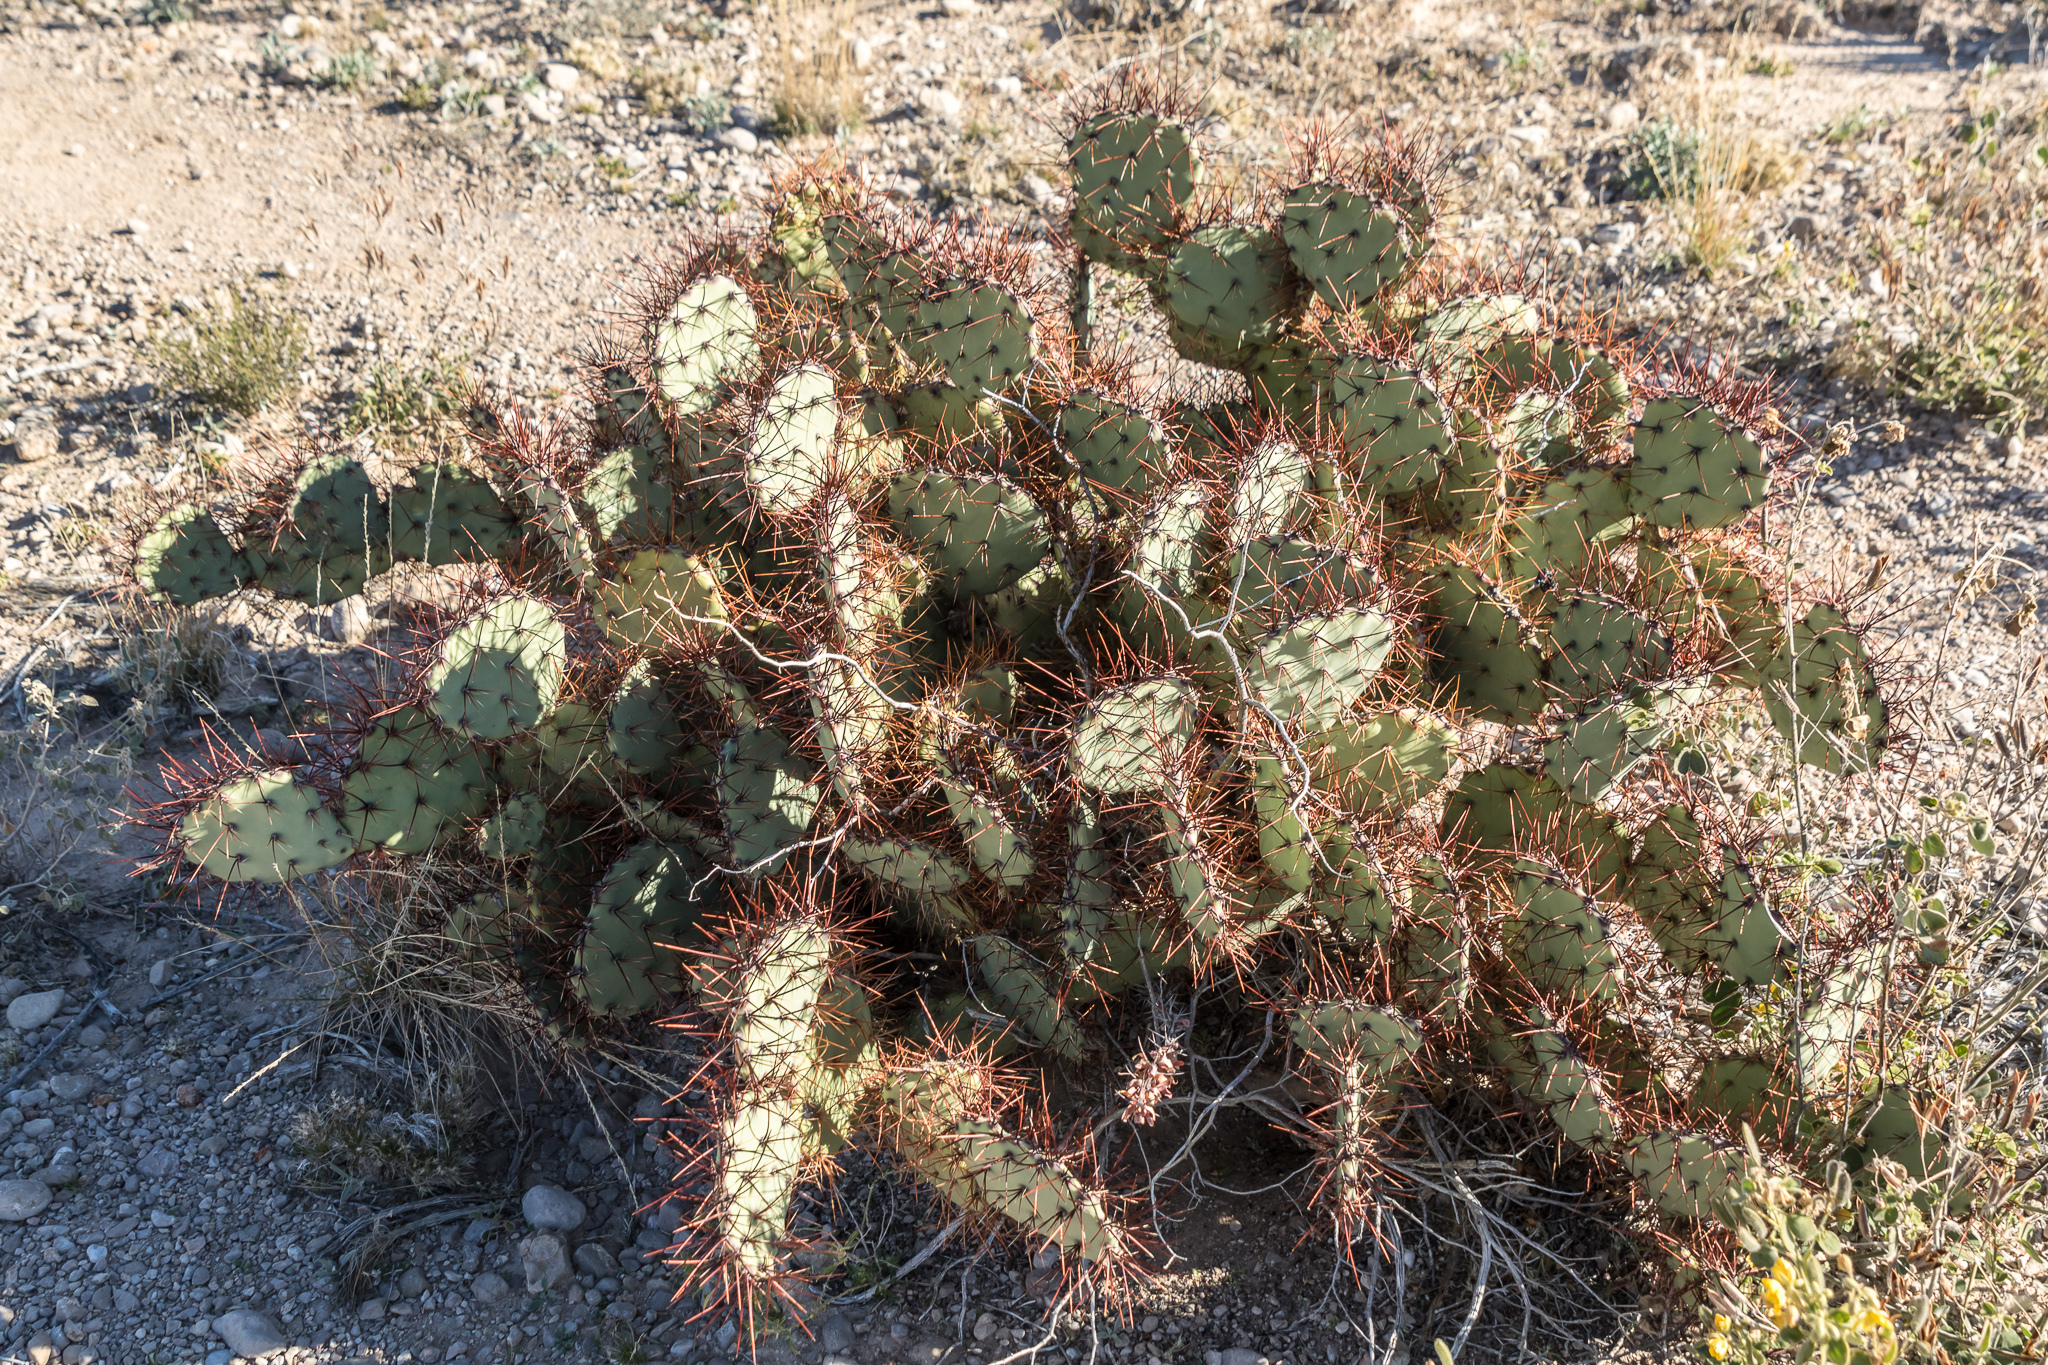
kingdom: Plantae
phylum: Tracheophyta
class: Magnoliopsida
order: Caryophyllales
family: Cactaceae
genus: Opuntia
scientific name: Opuntia spinosibacca
